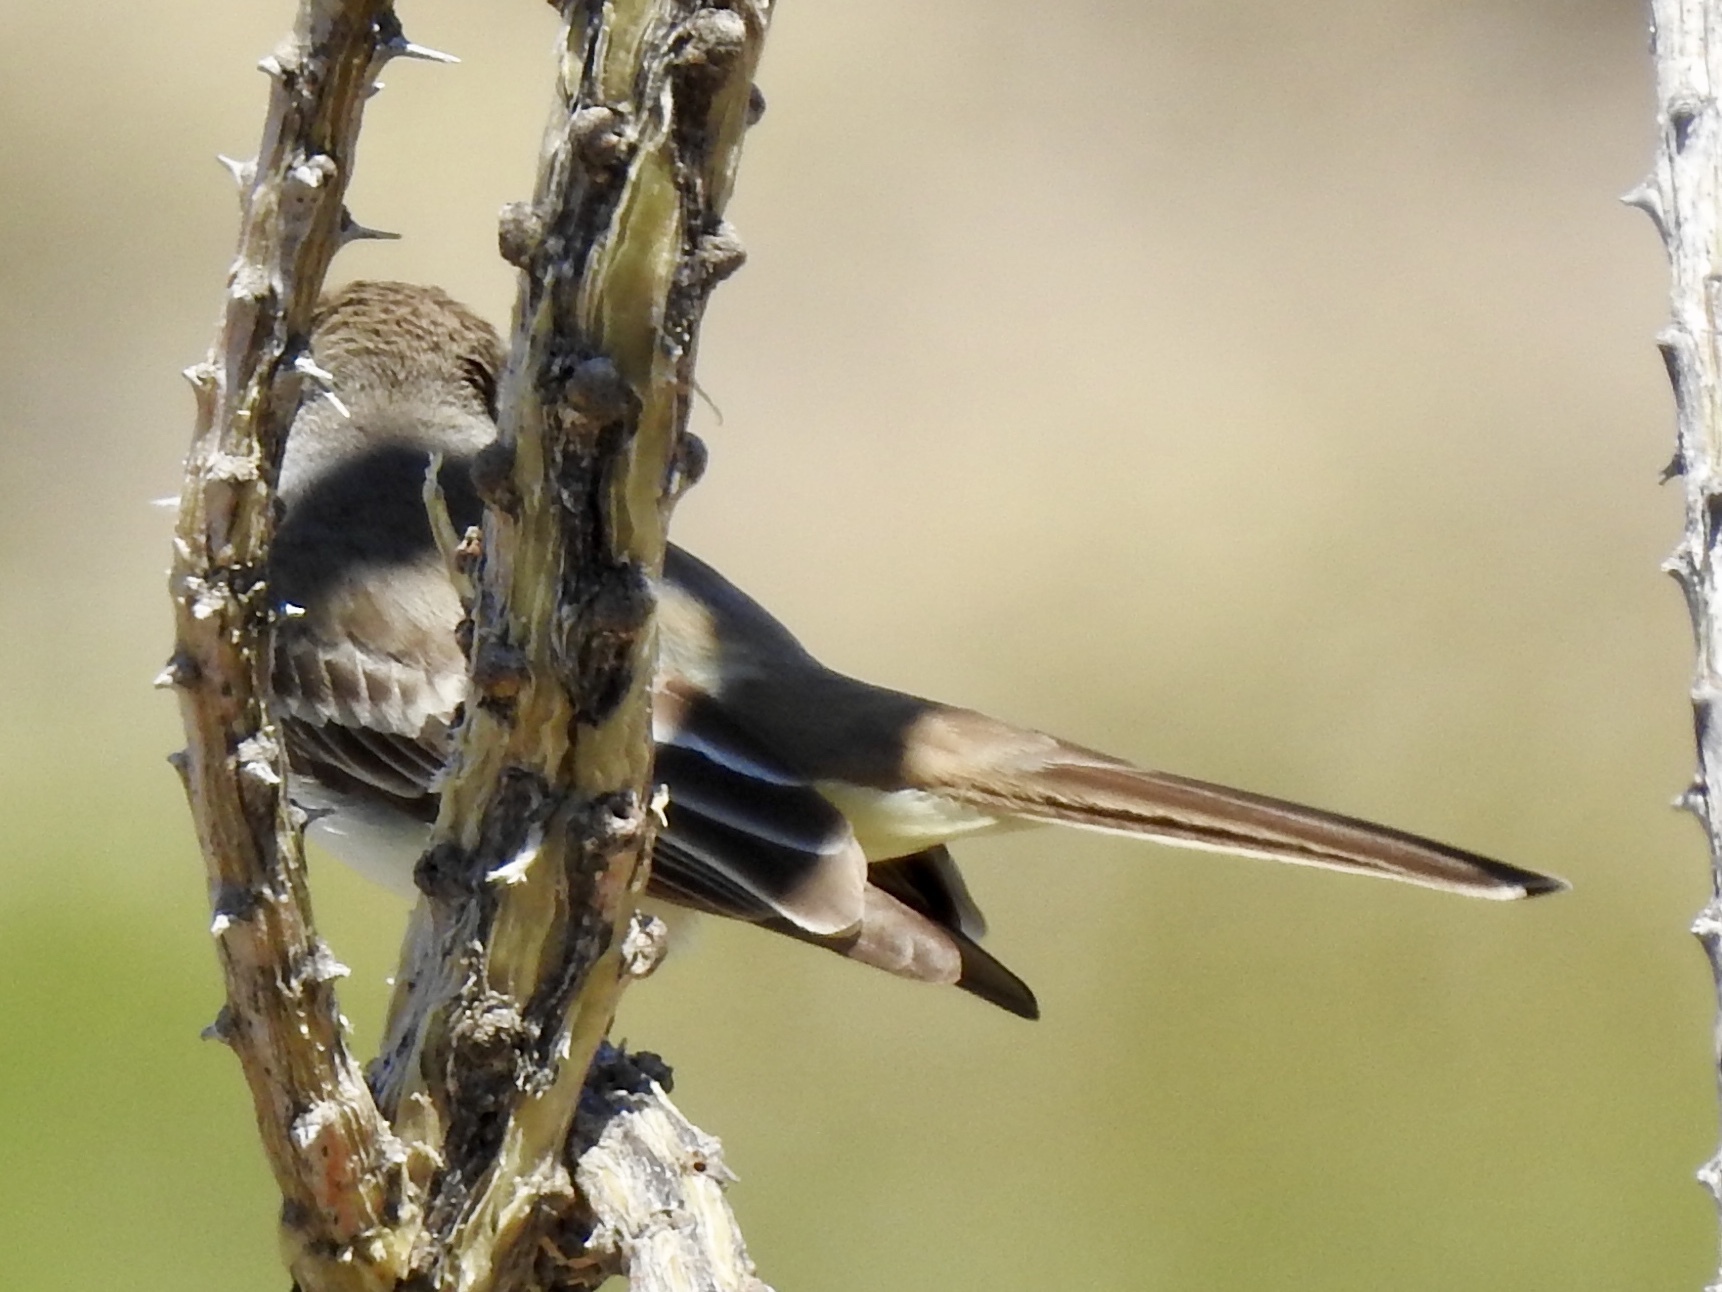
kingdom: Animalia
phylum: Chordata
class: Aves
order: Passeriformes
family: Tyrannidae
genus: Myiarchus
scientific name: Myiarchus cinerascens
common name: Ash-throated flycatcher
